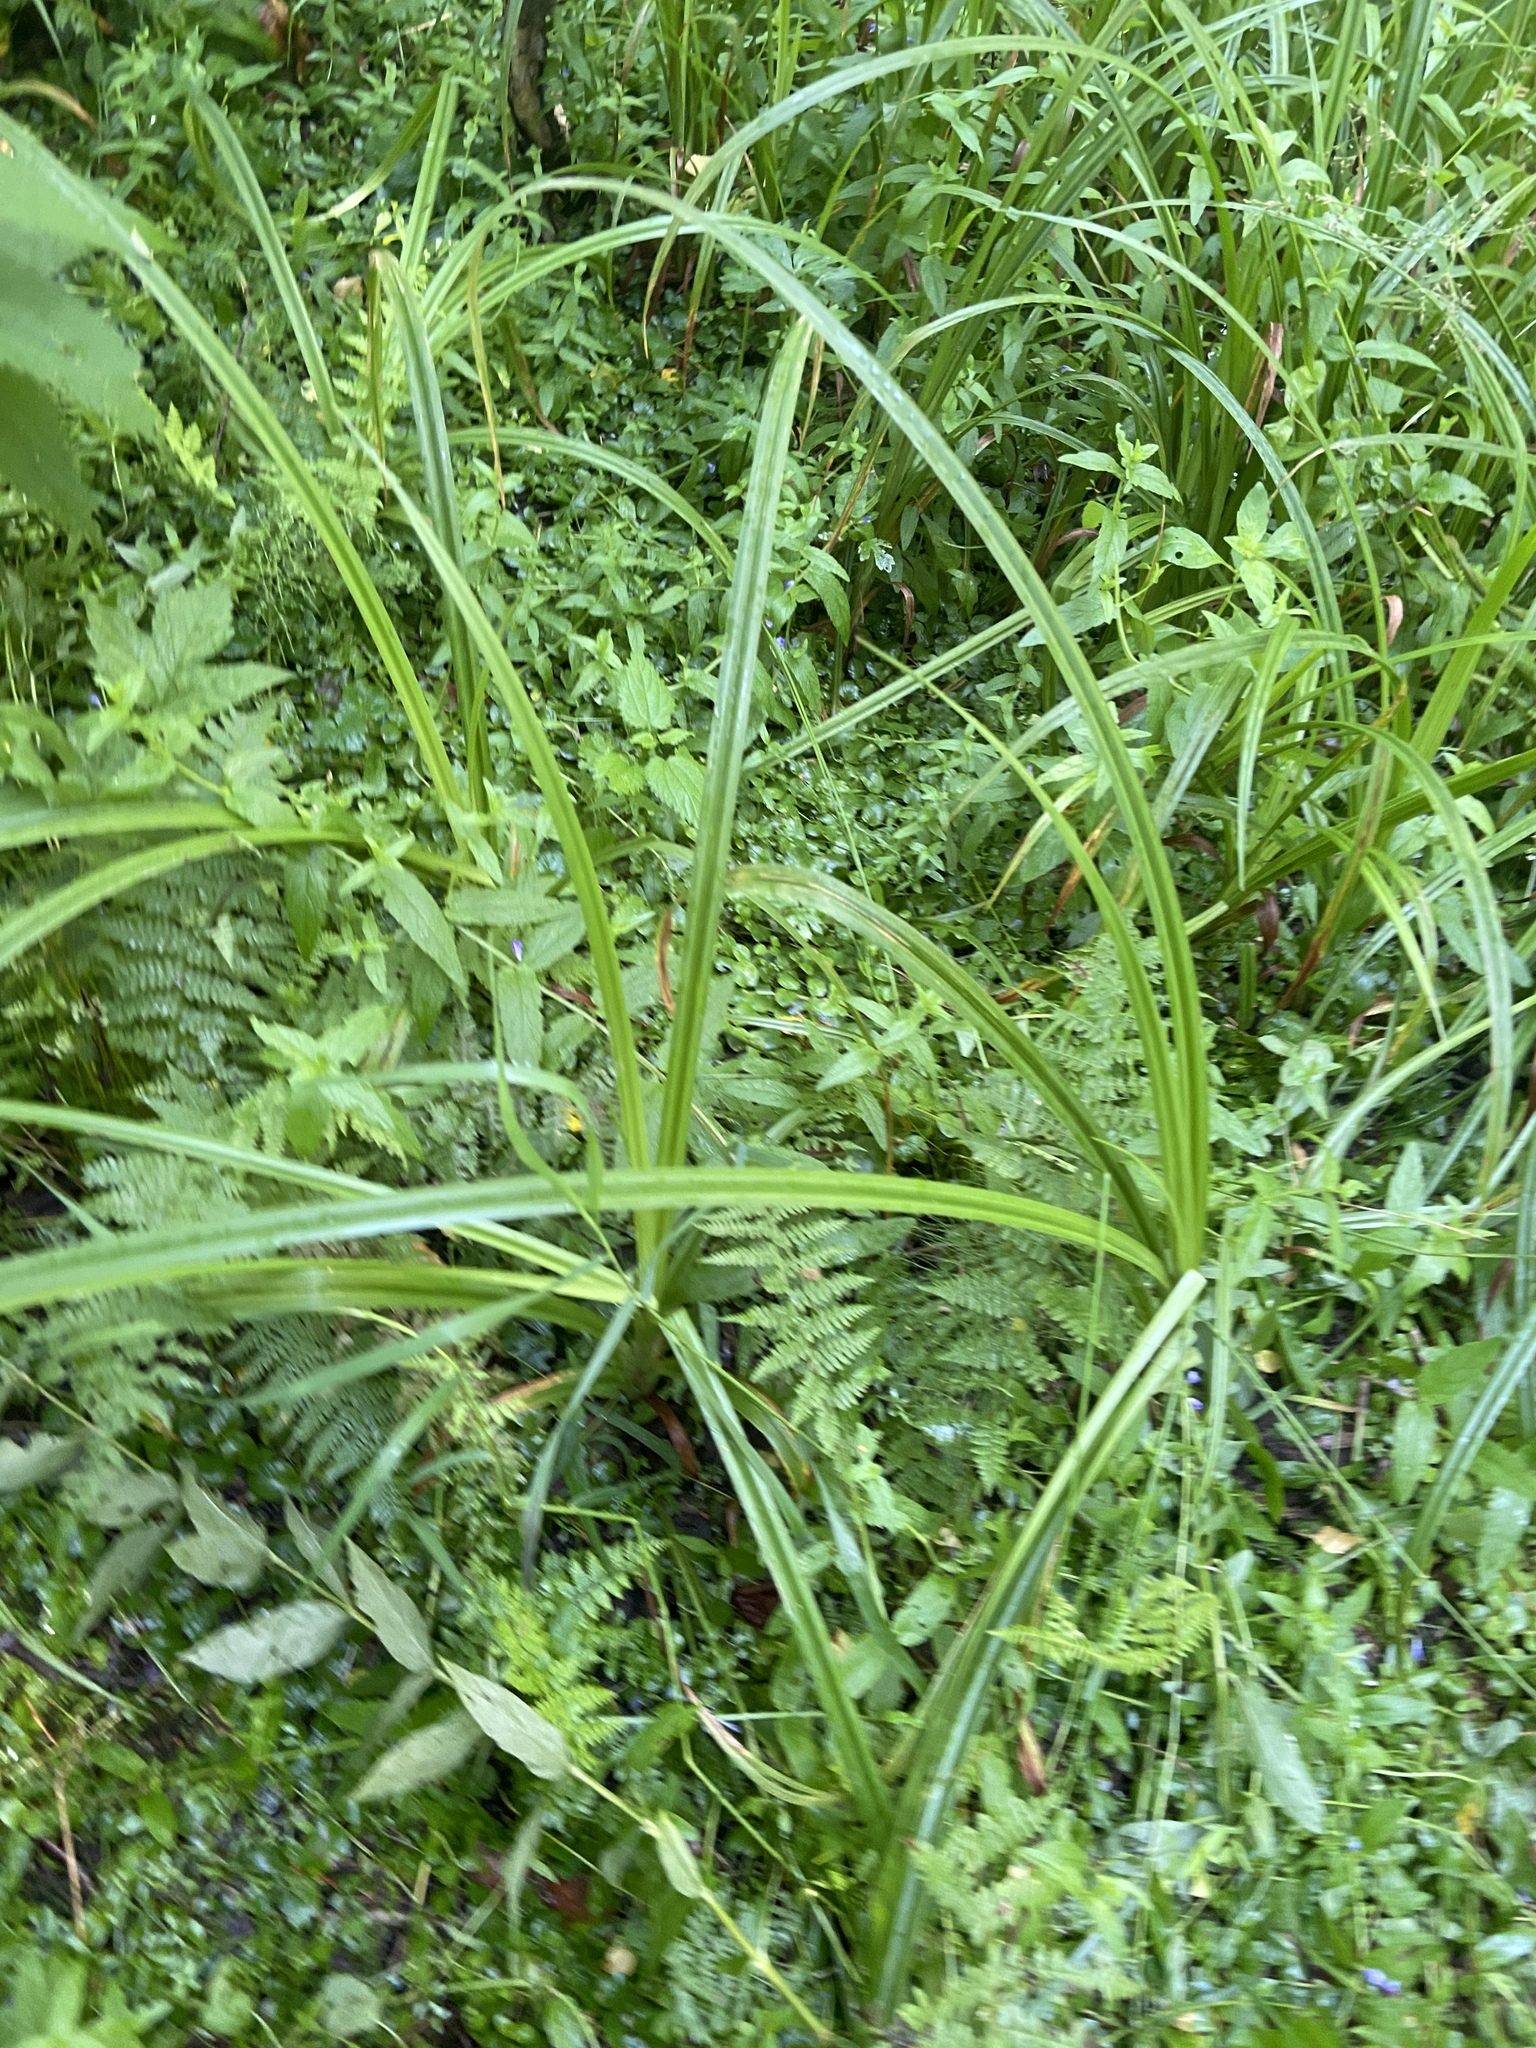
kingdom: Plantae
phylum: Tracheophyta
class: Liliopsida
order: Poales
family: Cyperaceae
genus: Scirpus
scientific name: Scirpus sylvaticus
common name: Wood club-rush
